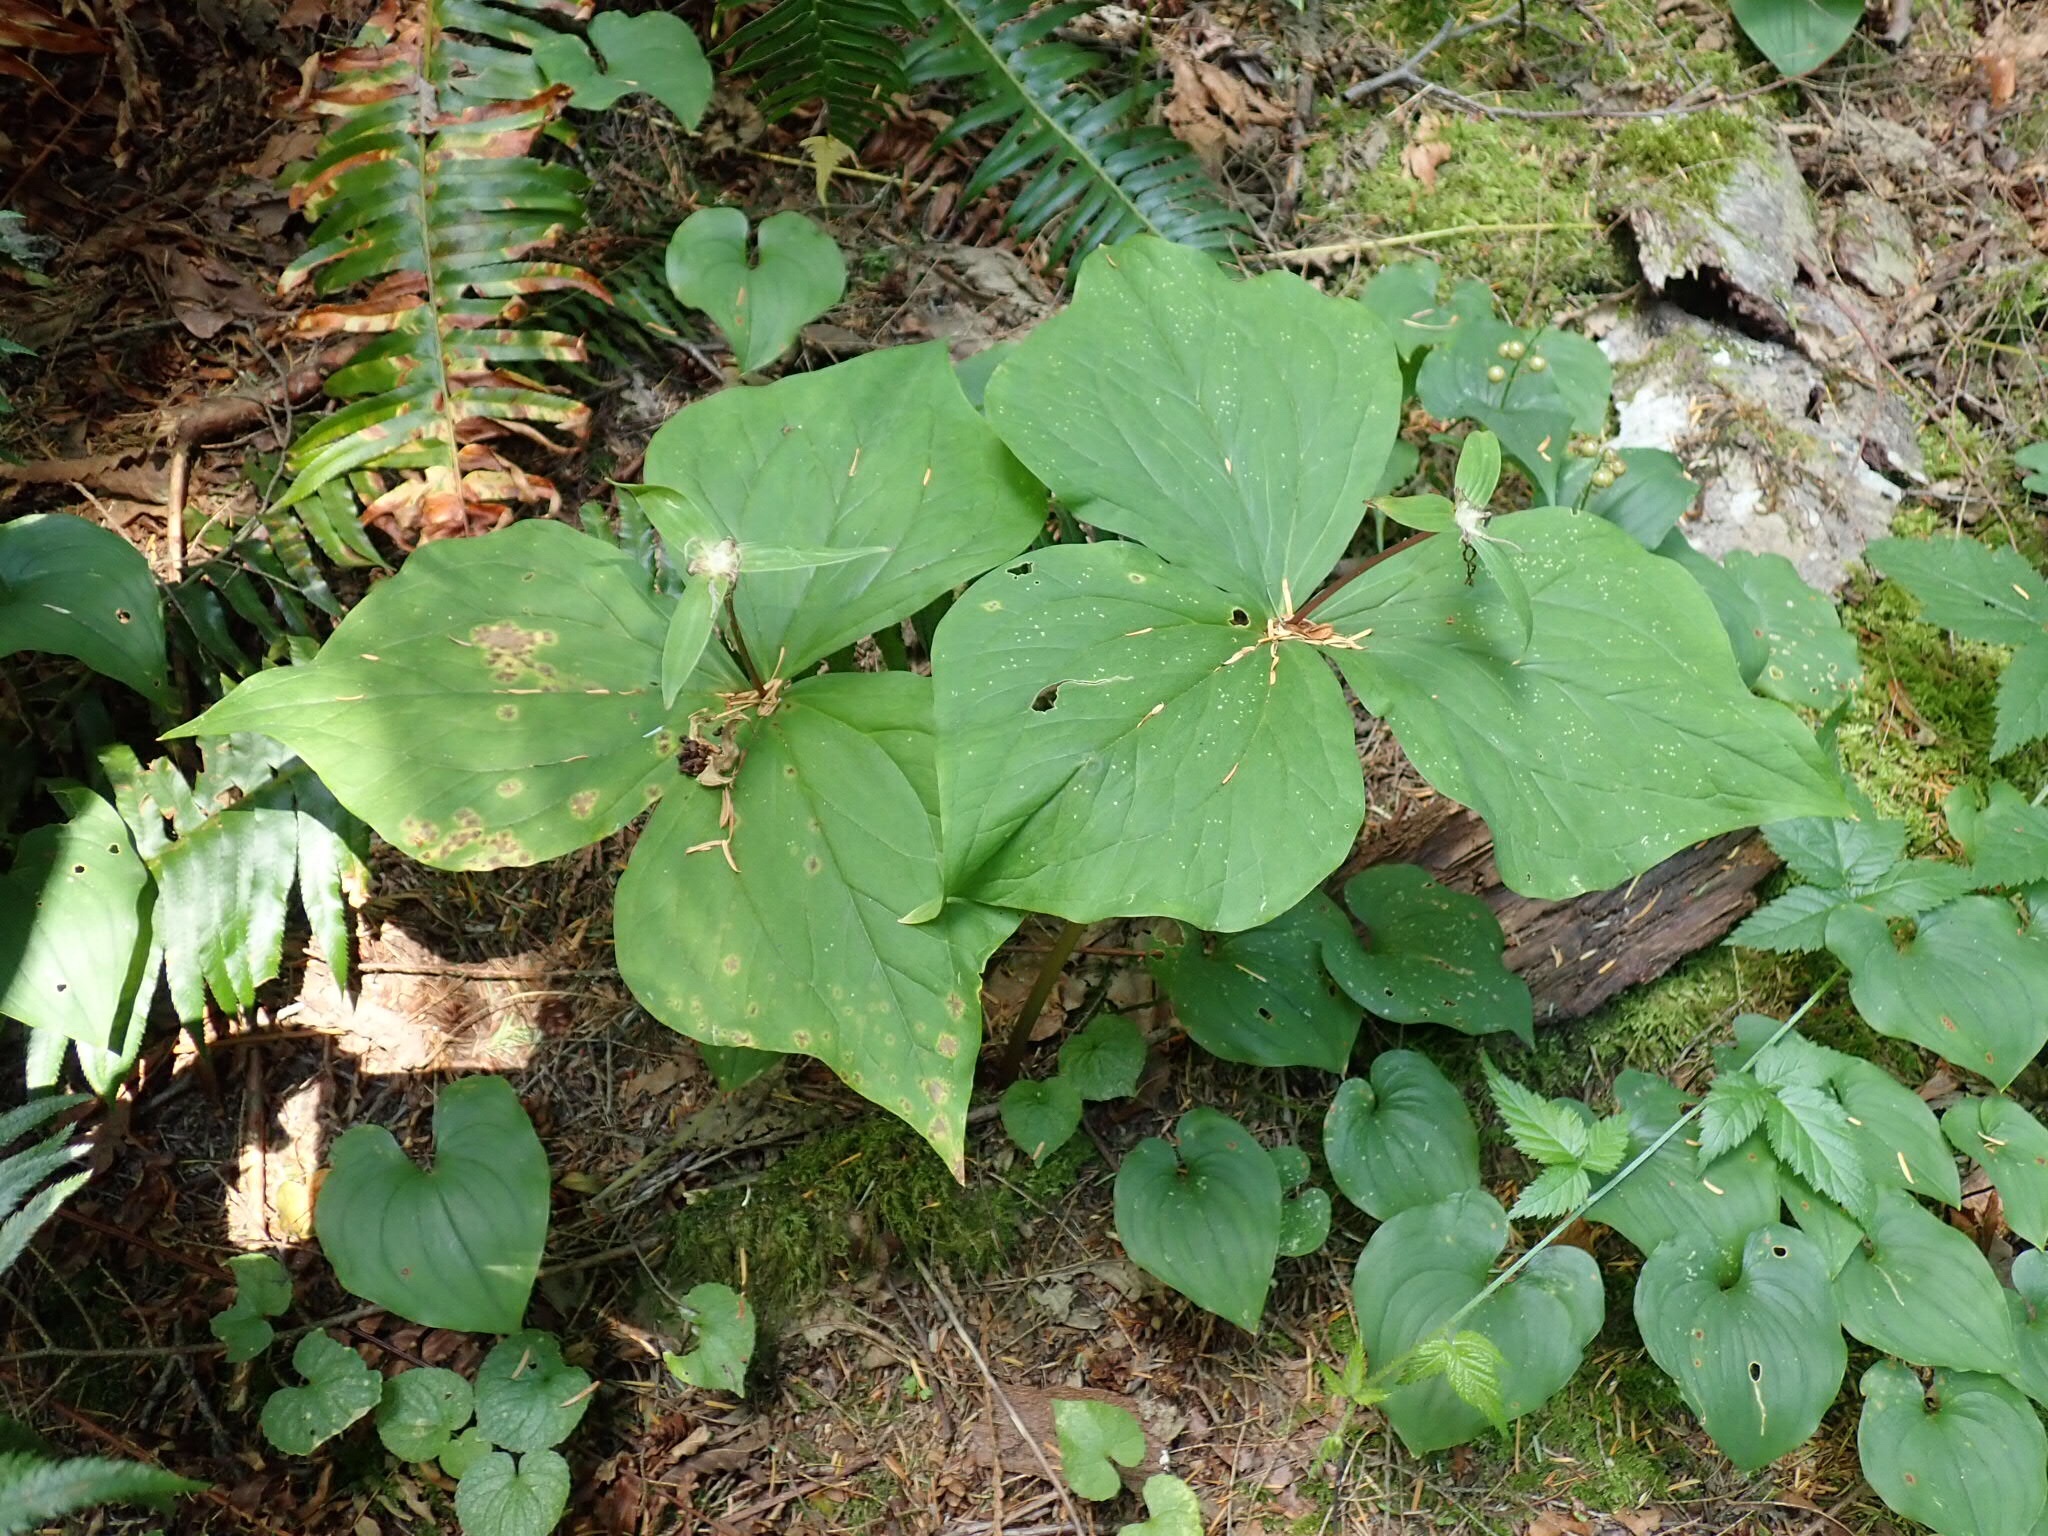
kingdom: Plantae
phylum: Tracheophyta
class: Liliopsida
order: Liliales
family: Melanthiaceae
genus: Trillium
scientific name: Trillium ovatum
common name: Pacific trillium
